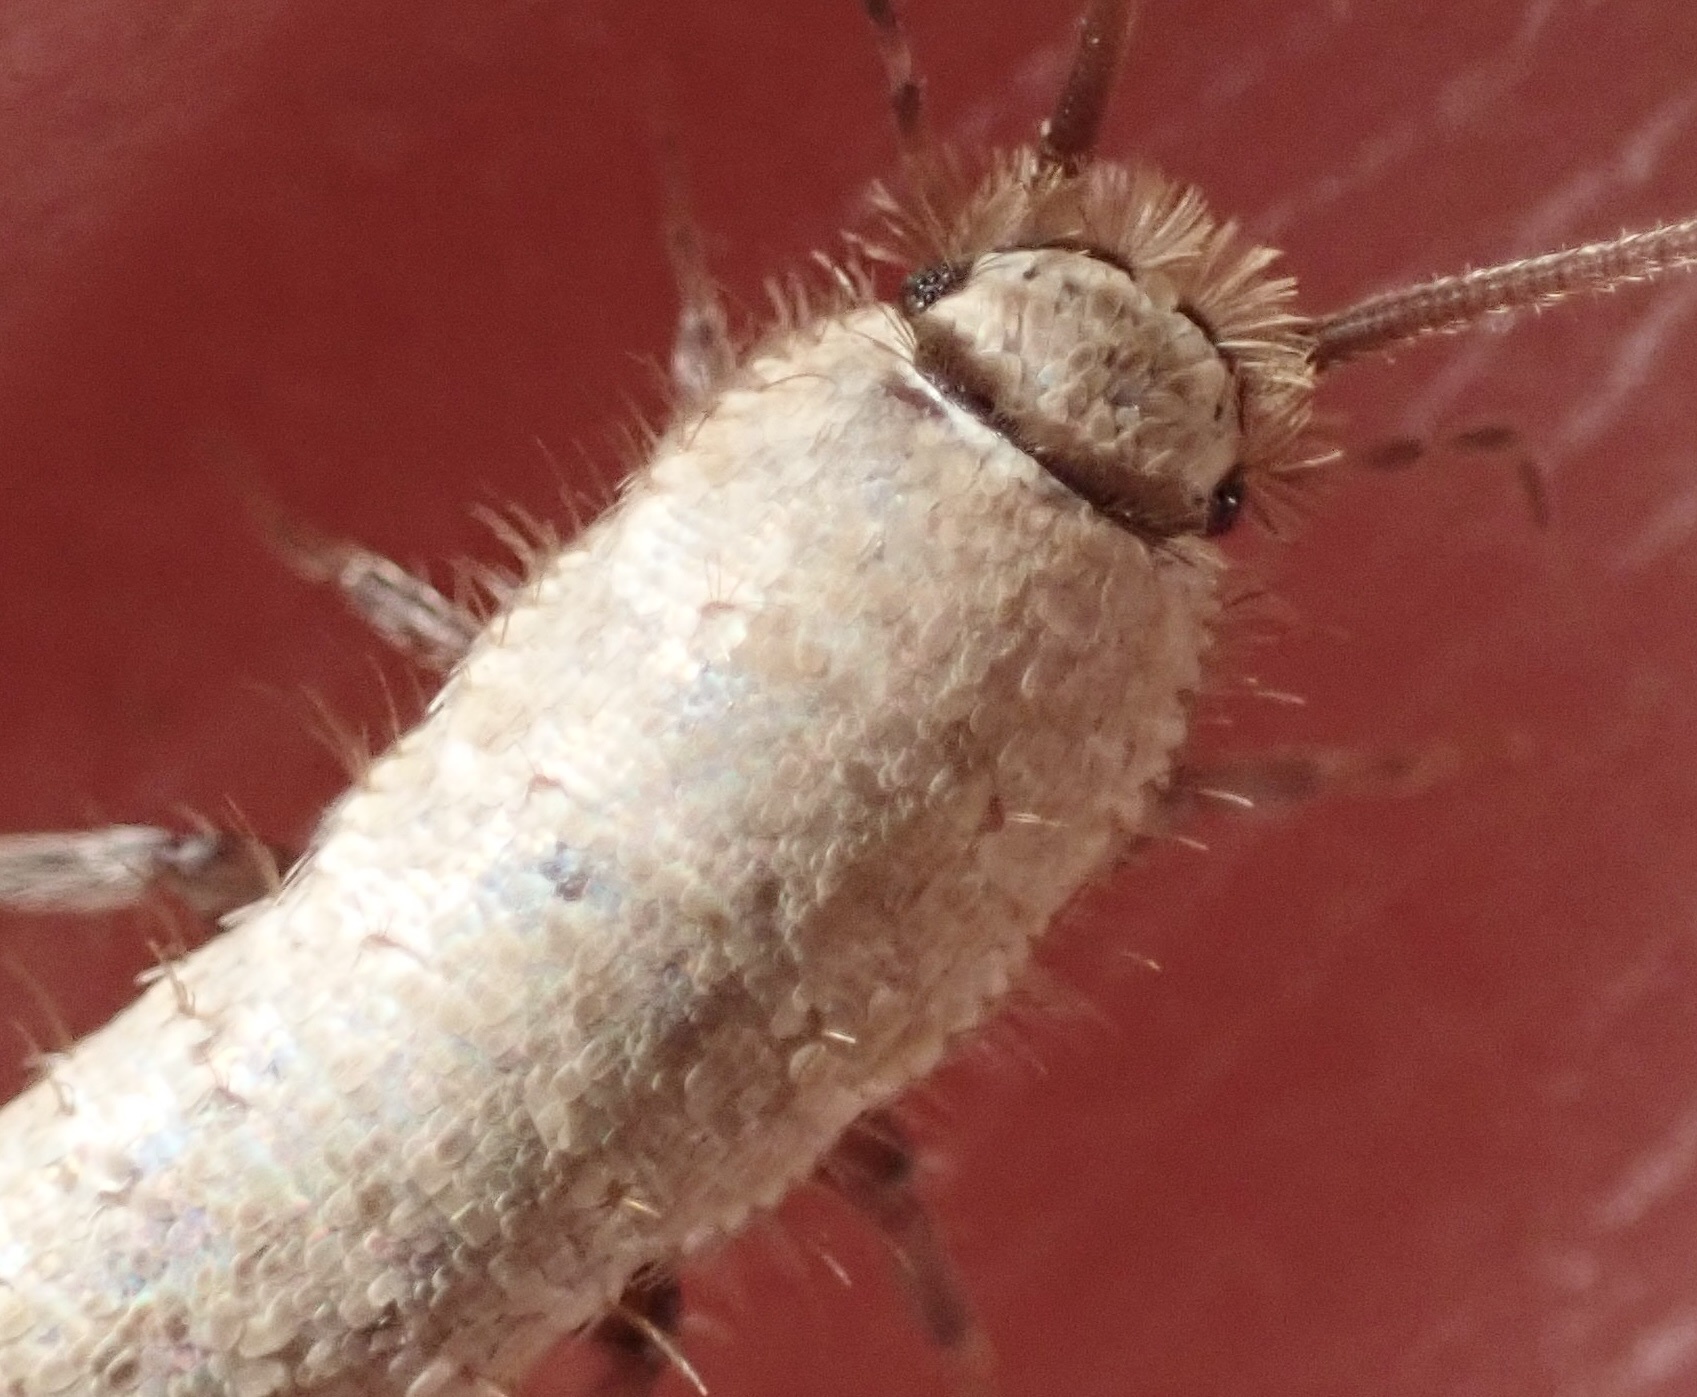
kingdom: Animalia
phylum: Arthropoda
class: Insecta
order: Zygentoma
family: Lepismatidae
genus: Ctenolepisma
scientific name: Ctenolepisma ciliata
